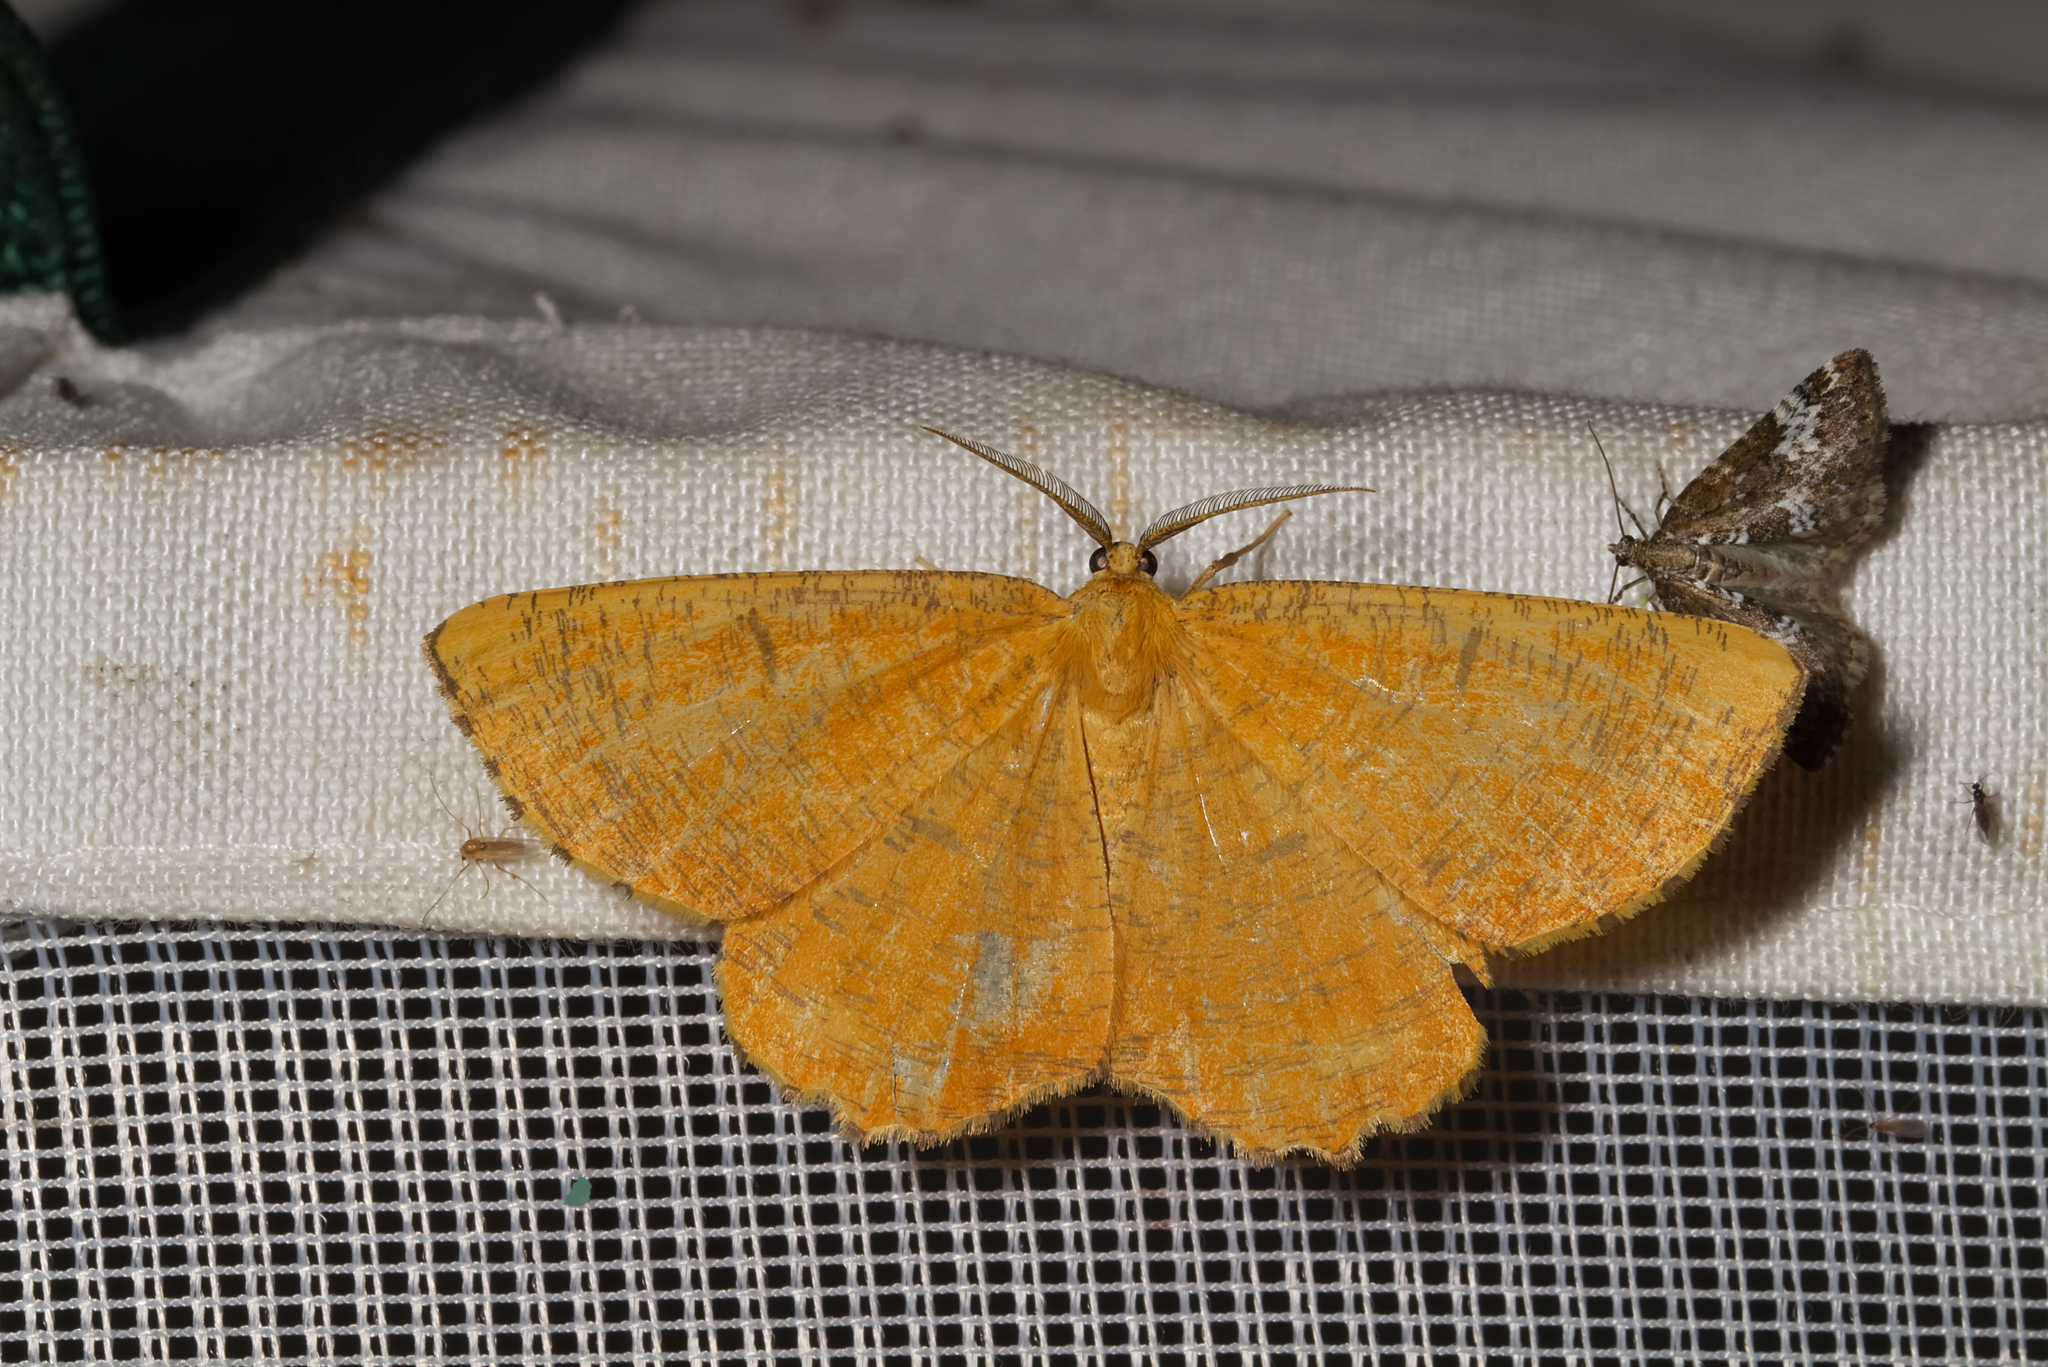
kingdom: Animalia
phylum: Arthropoda
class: Insecta
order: Lepidoptera
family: Geometridae
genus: Angerona
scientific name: Angerona prunaria
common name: Orange moth
